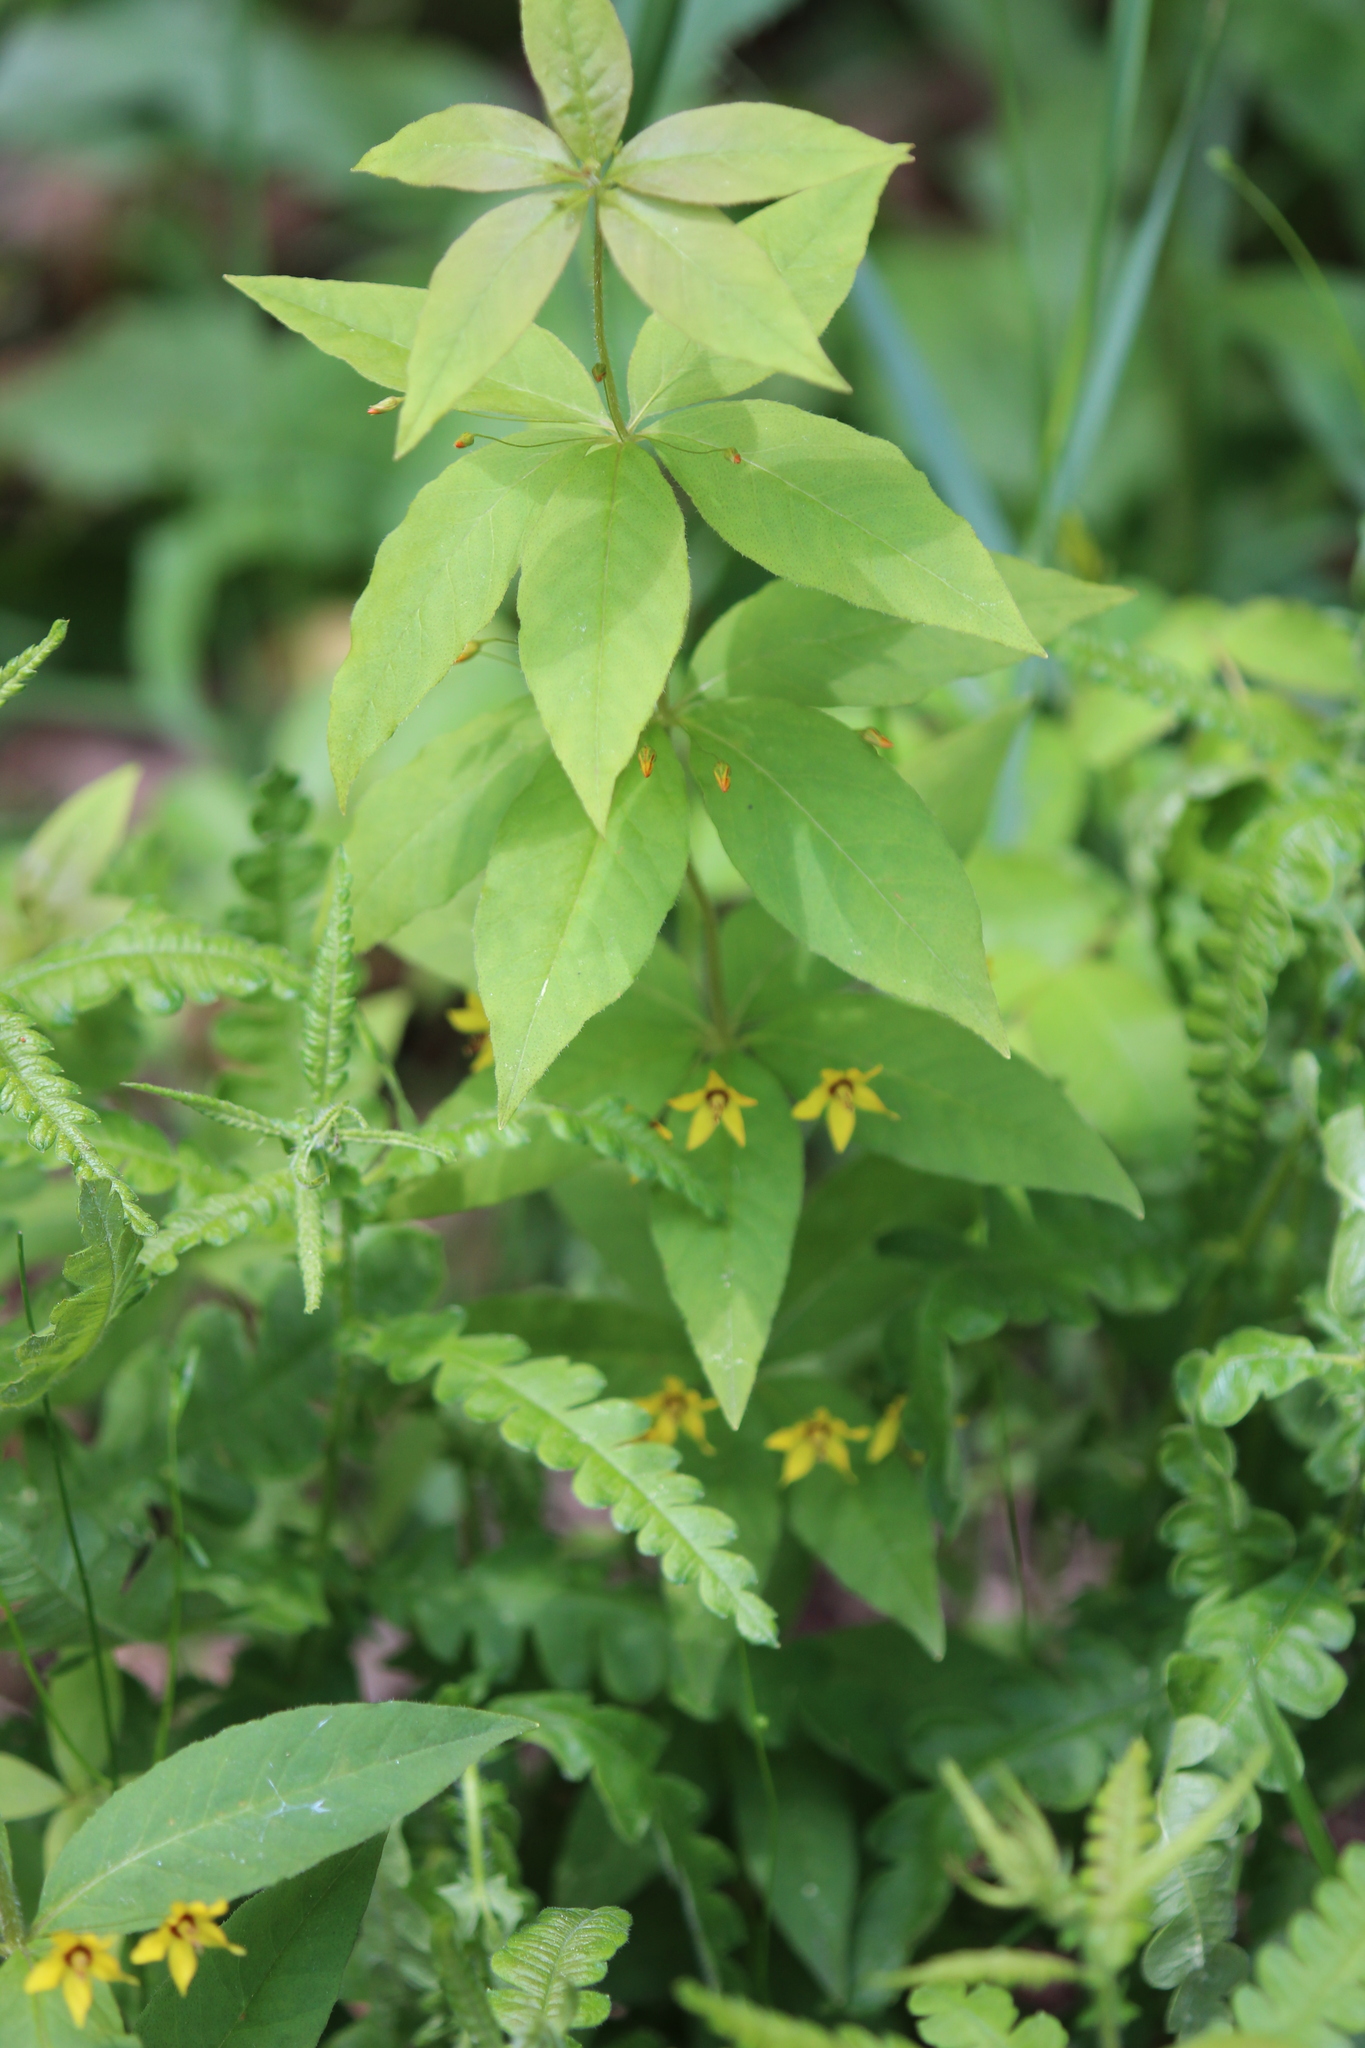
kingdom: Plantae
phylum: Tracheophyta
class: Magnoliopsida
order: Ericales
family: Primulaceae
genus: Lysimachia
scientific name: Lysimachia quadrifolia
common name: Whorled loosestrife
